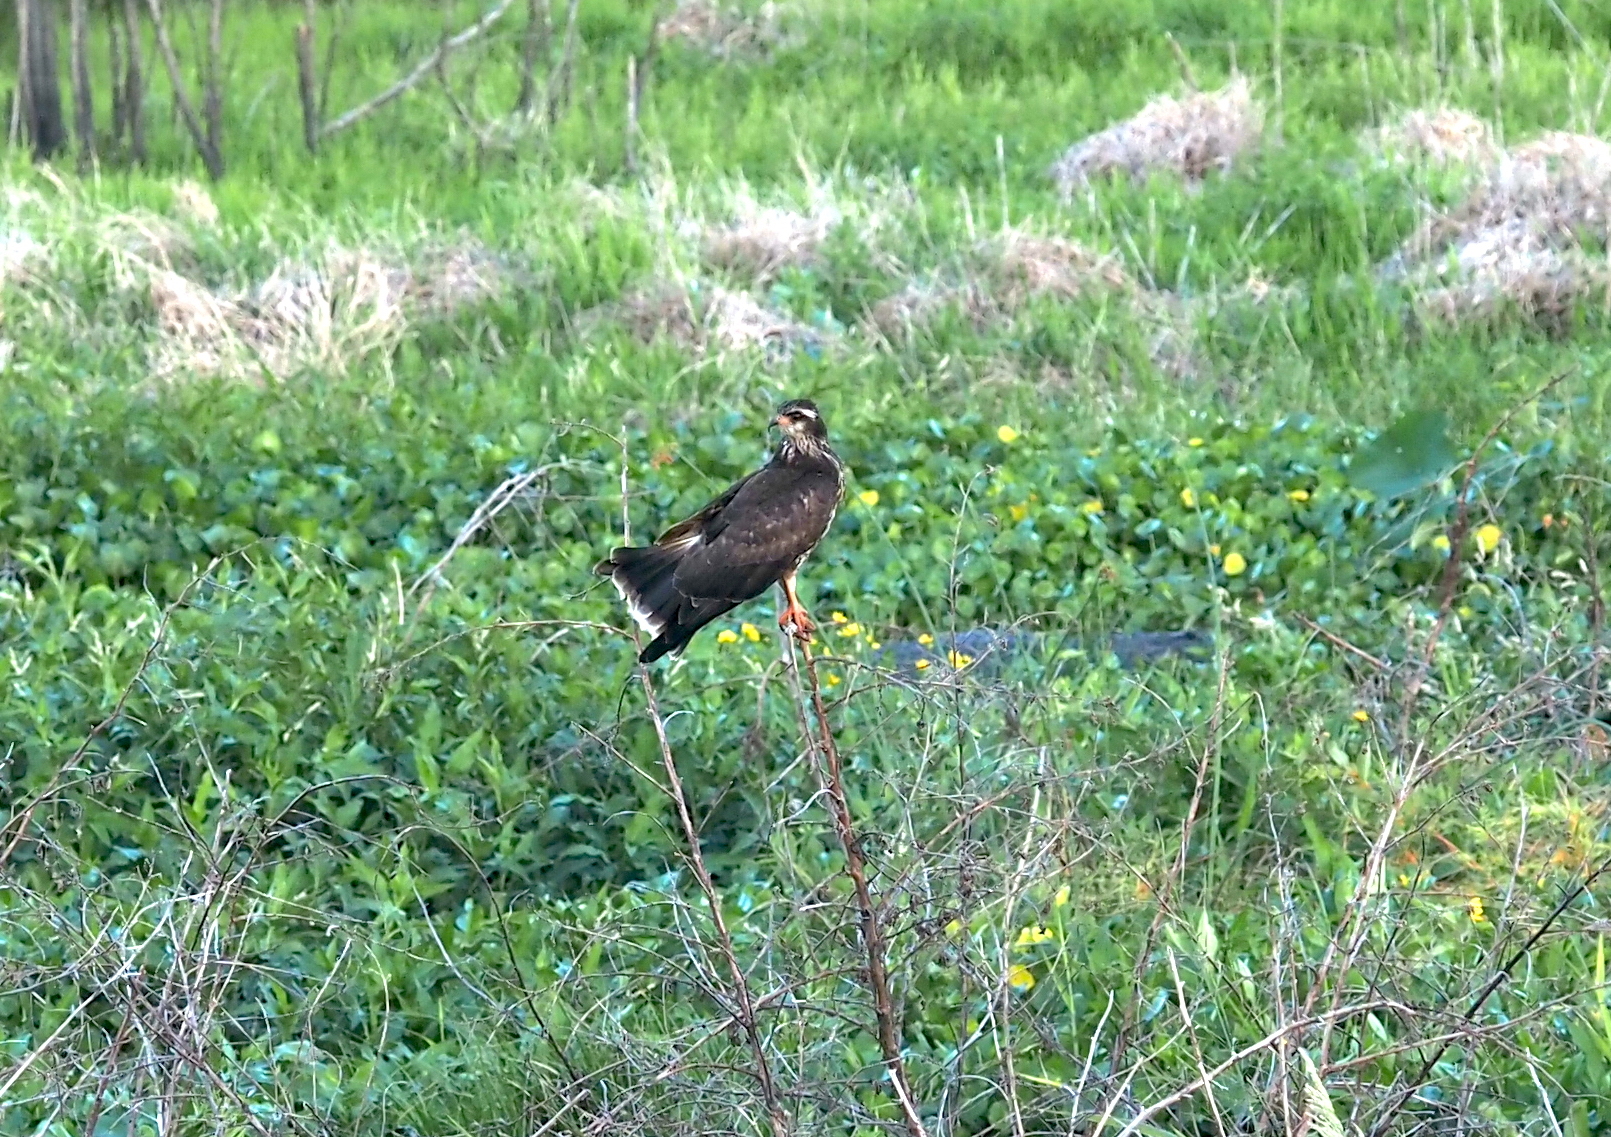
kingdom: Animalia
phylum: Chordata
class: Aves
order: Accipitriformes
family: Accipitridae
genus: Rostrhamus
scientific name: Rostrhamus sociabilis
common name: Snail kite
